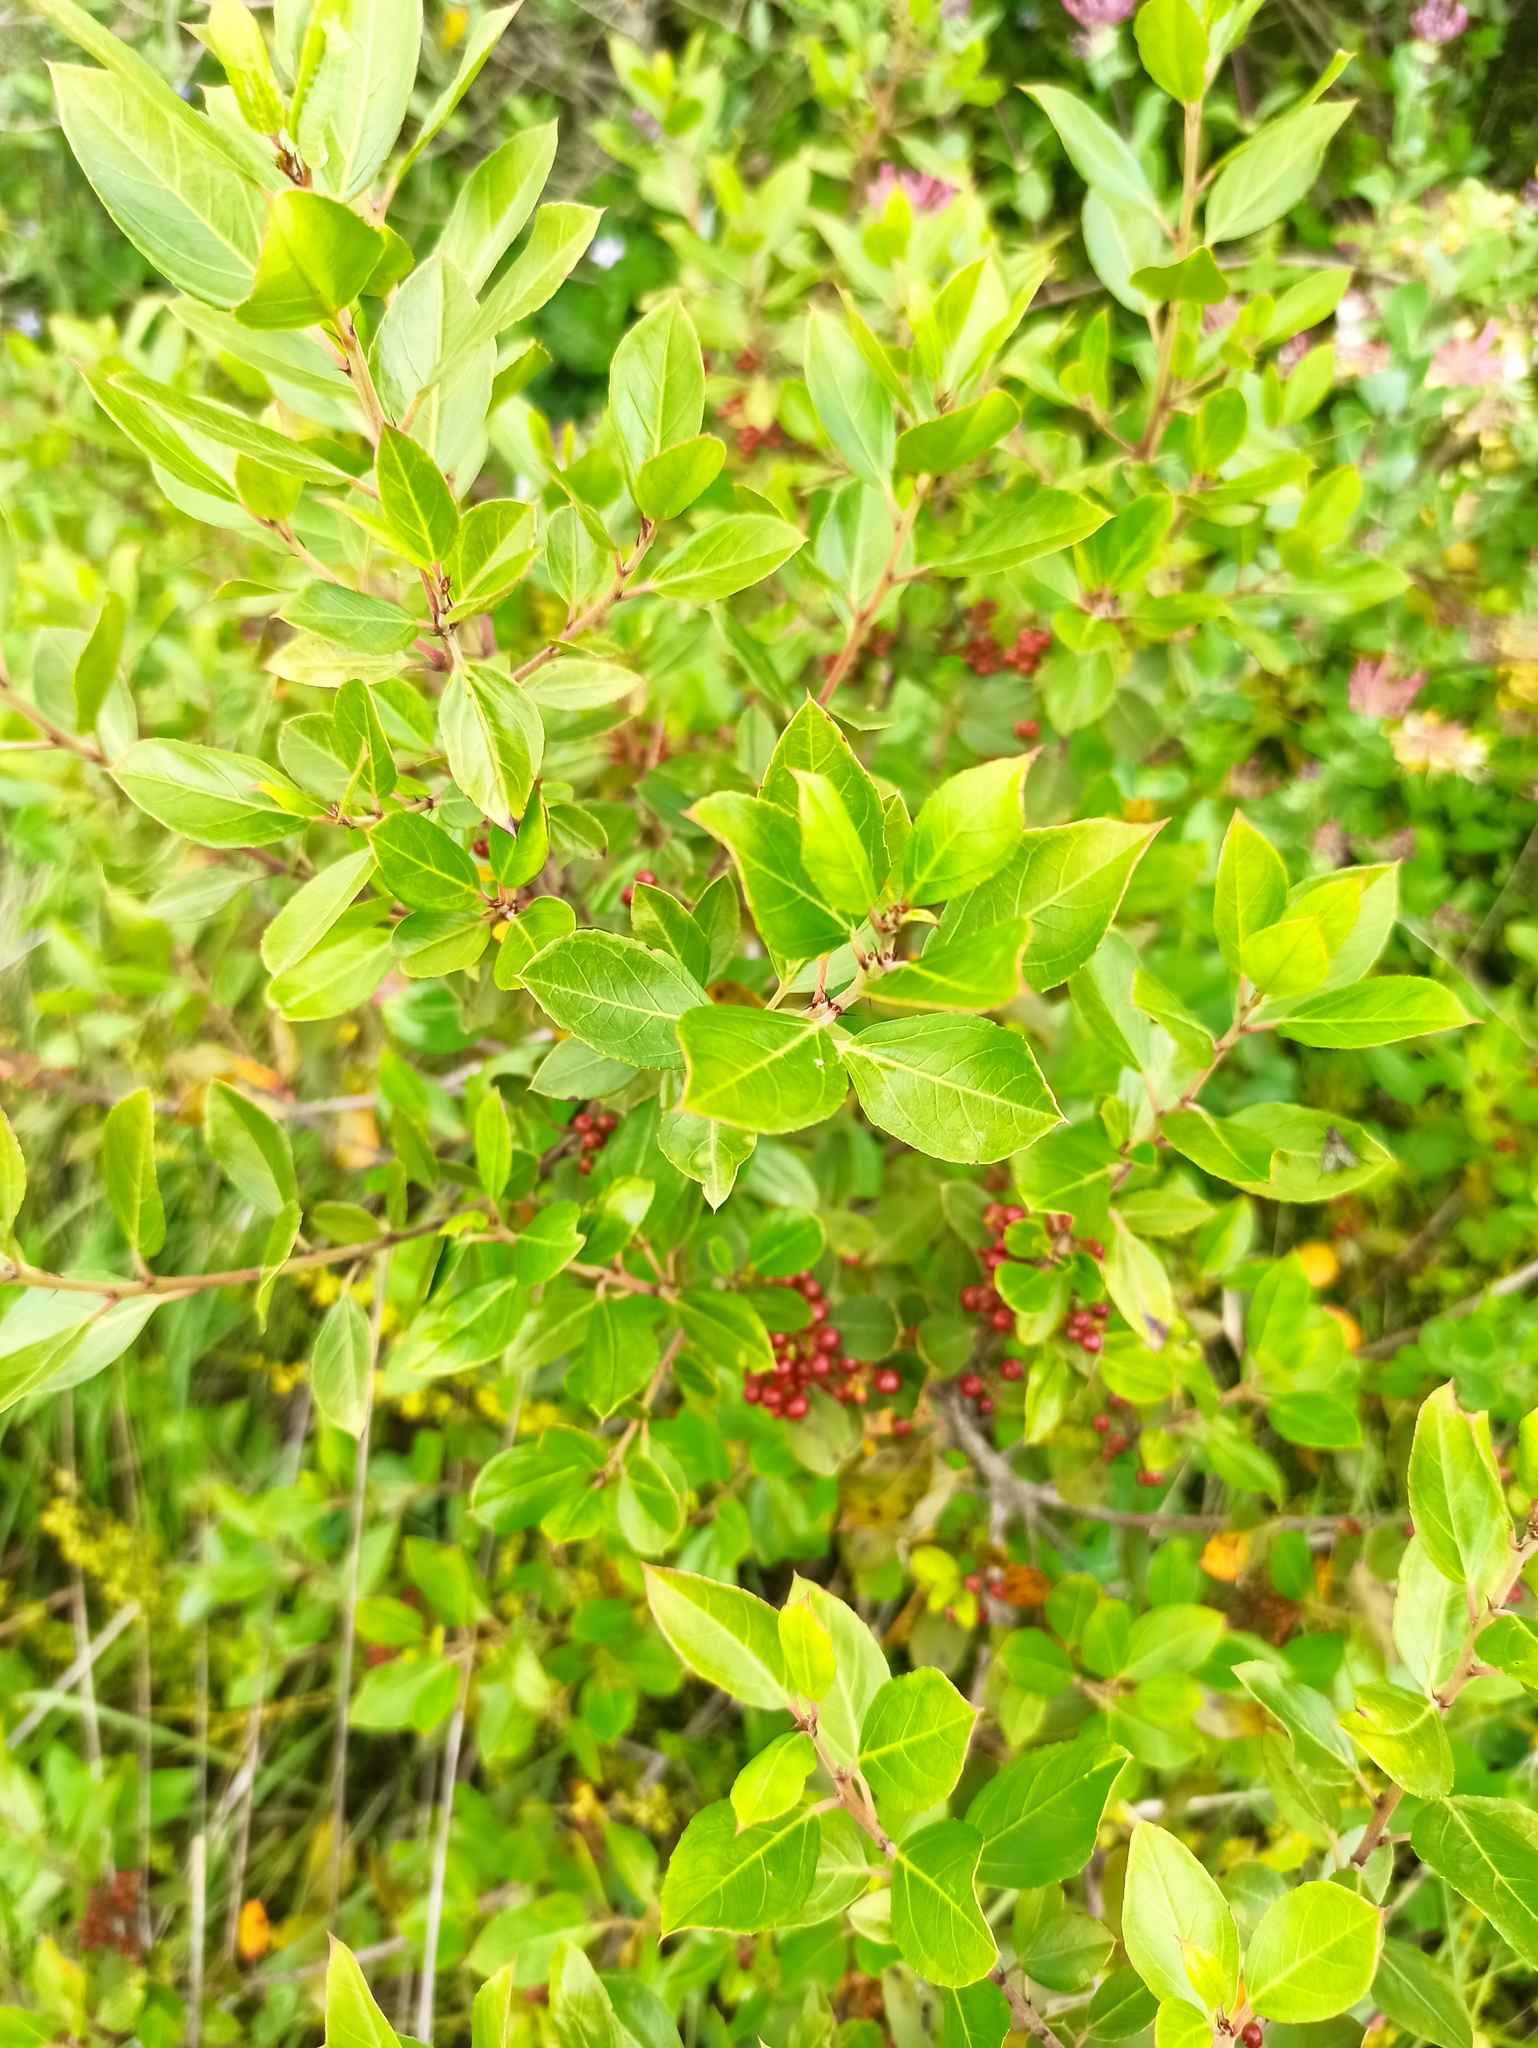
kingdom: Plantae
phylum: Tracheophyta
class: Magnoliopsida
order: Rosales
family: Rhamnaceae
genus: Rhamnus
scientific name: Rhamnus alaternus
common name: Mediterranean buckthorn
